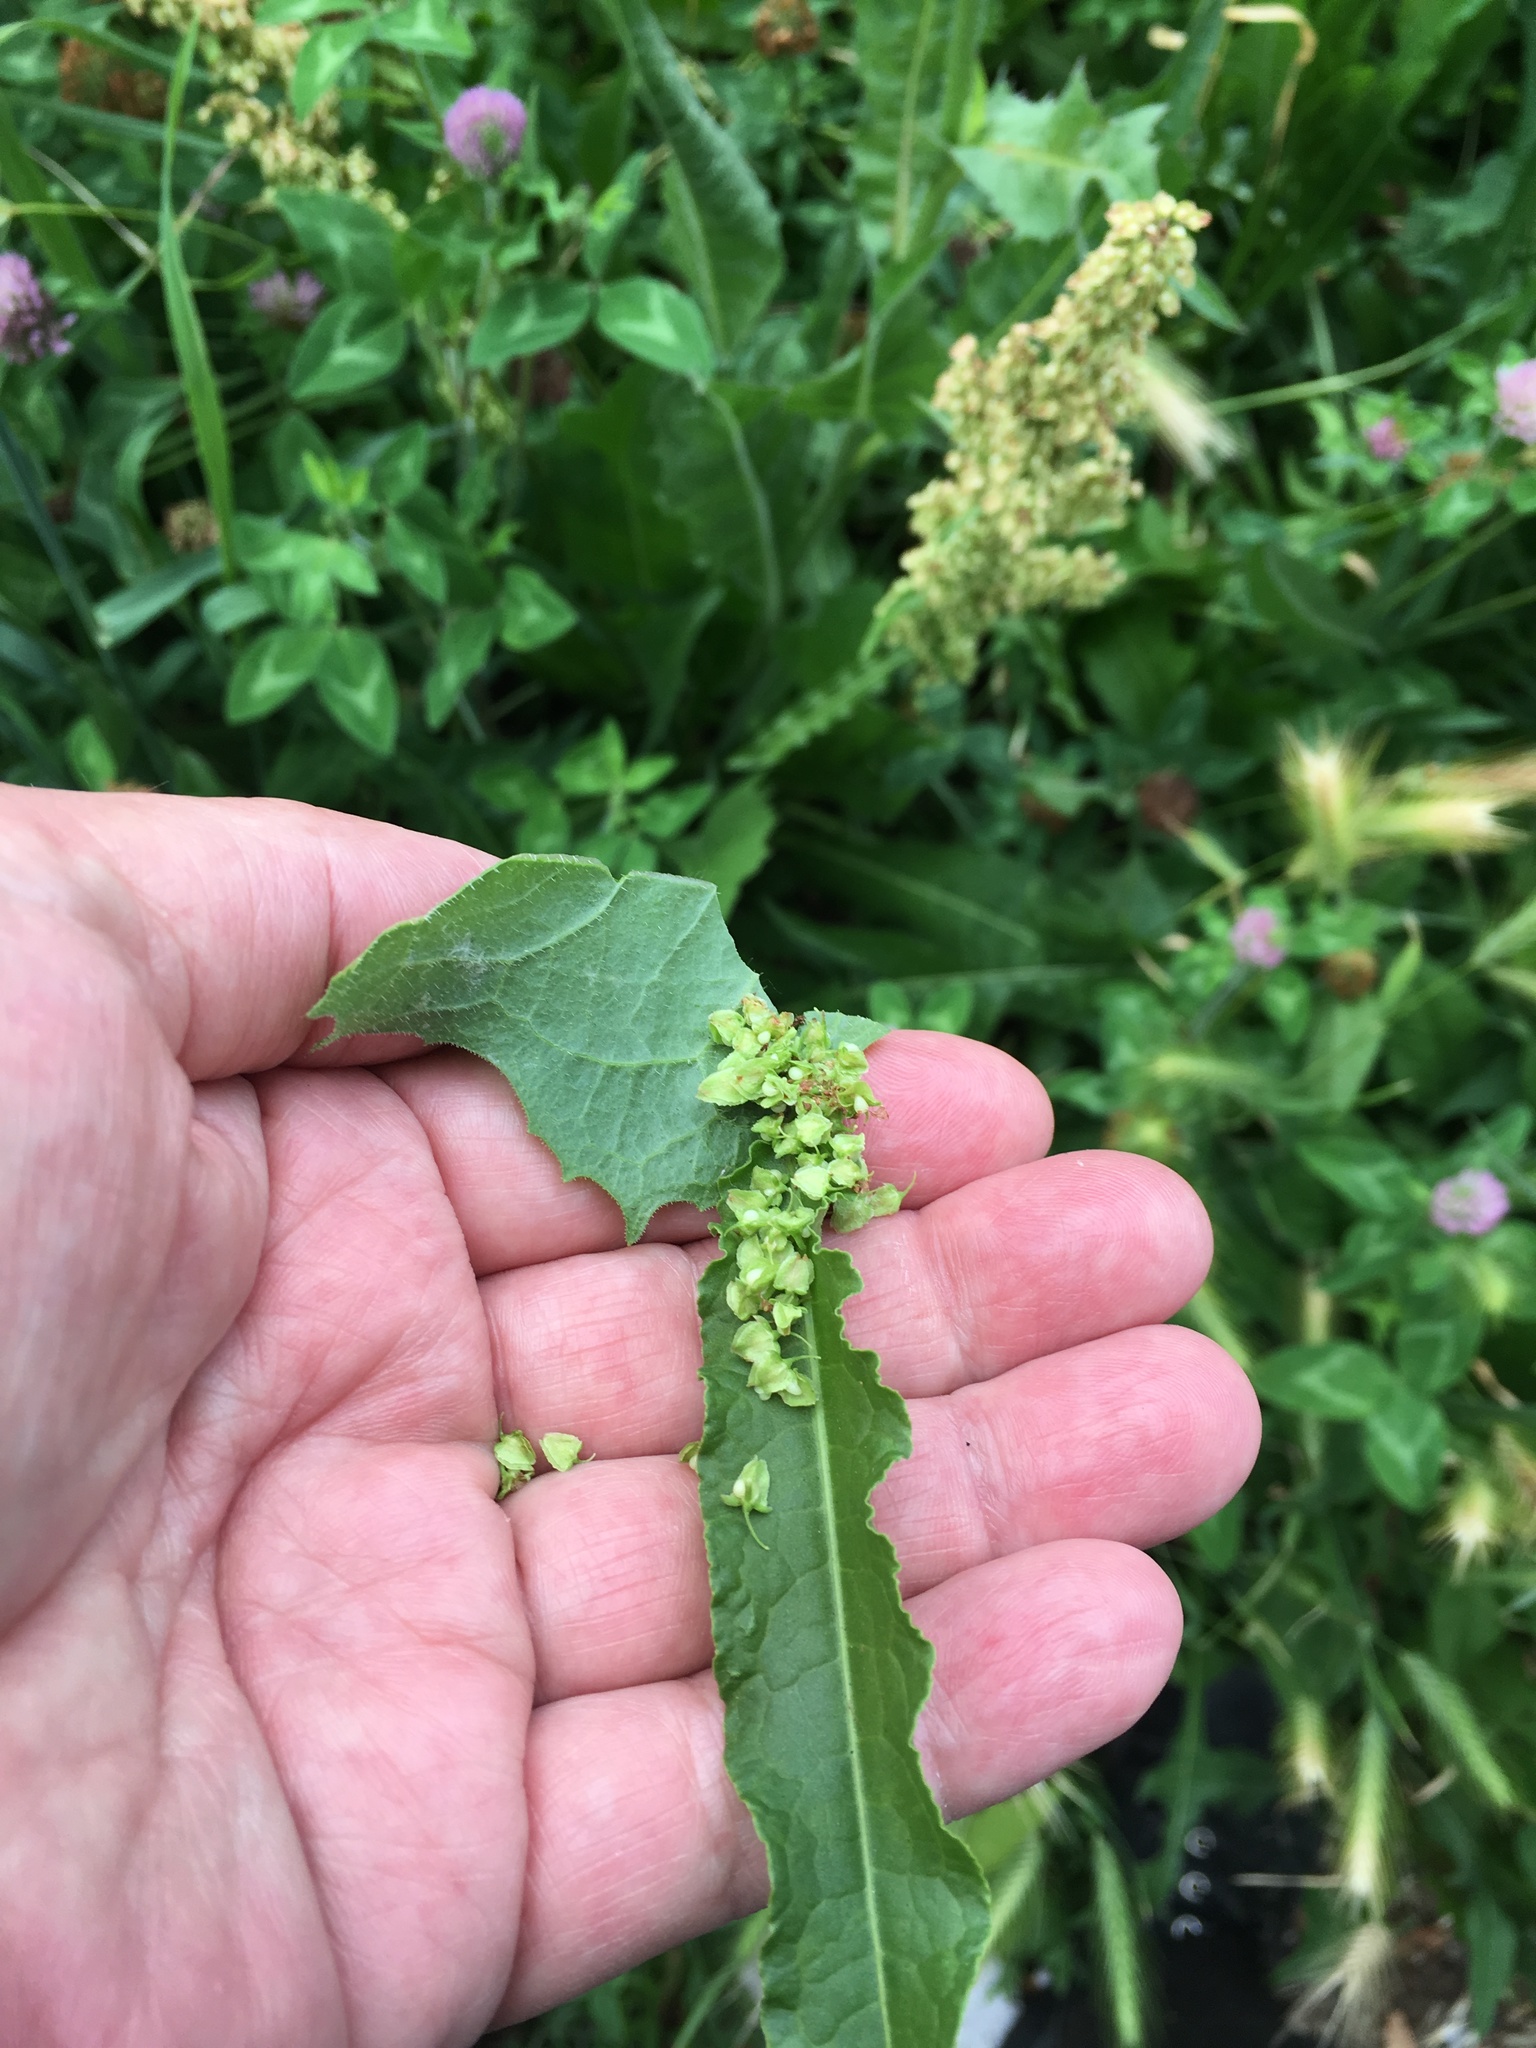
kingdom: Plantae
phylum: Tracheophyta
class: Magnoliopsida
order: Caryophyllales
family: Polygonaceae
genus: Rumex
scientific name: Rumex crispus
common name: Curled dock
